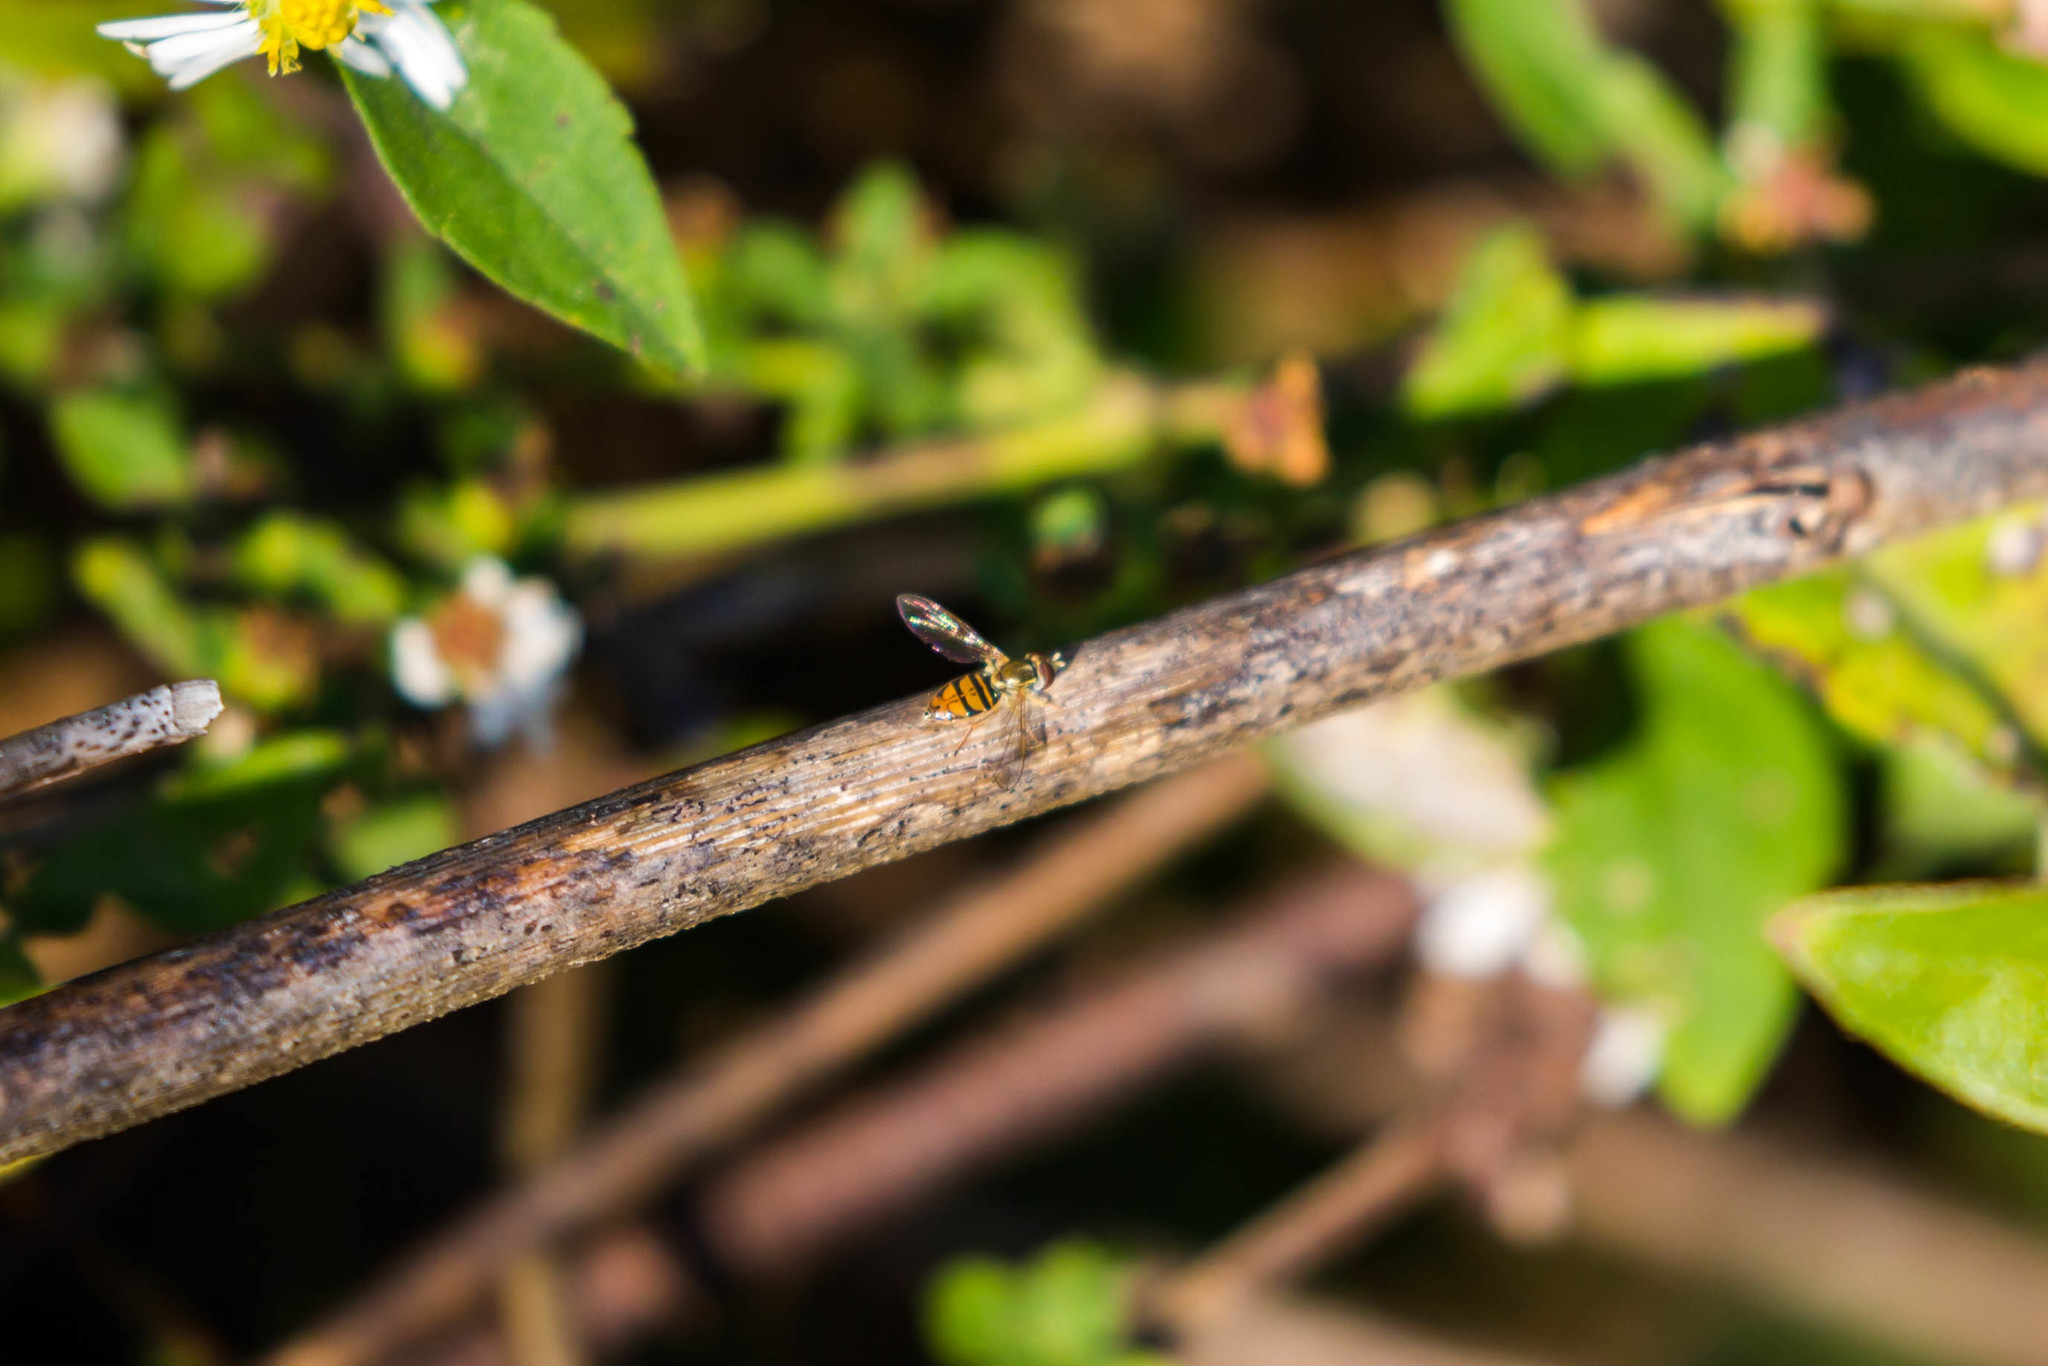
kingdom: Animalia
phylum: Arthropoda
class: Insecta
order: Diptera
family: Syrphidae
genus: Toxomerus
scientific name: Toxomerus marginatus
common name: Syrphid fly
